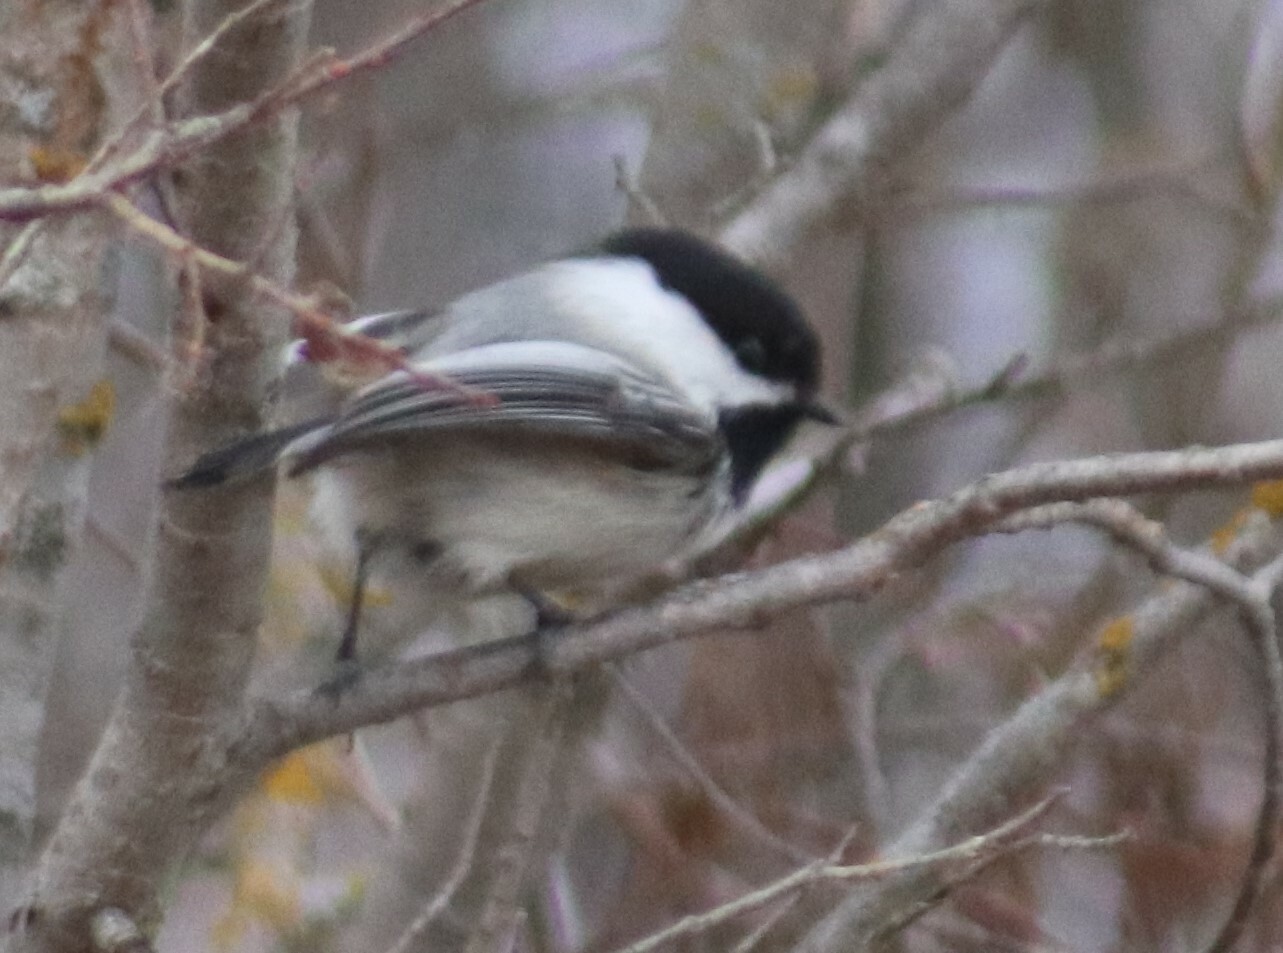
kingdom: Animalia
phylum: Chordata
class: Aves
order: Passeriformes
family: Paridae
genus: Poecile
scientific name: Poecile atricapillus
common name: Black-capped chickadee
